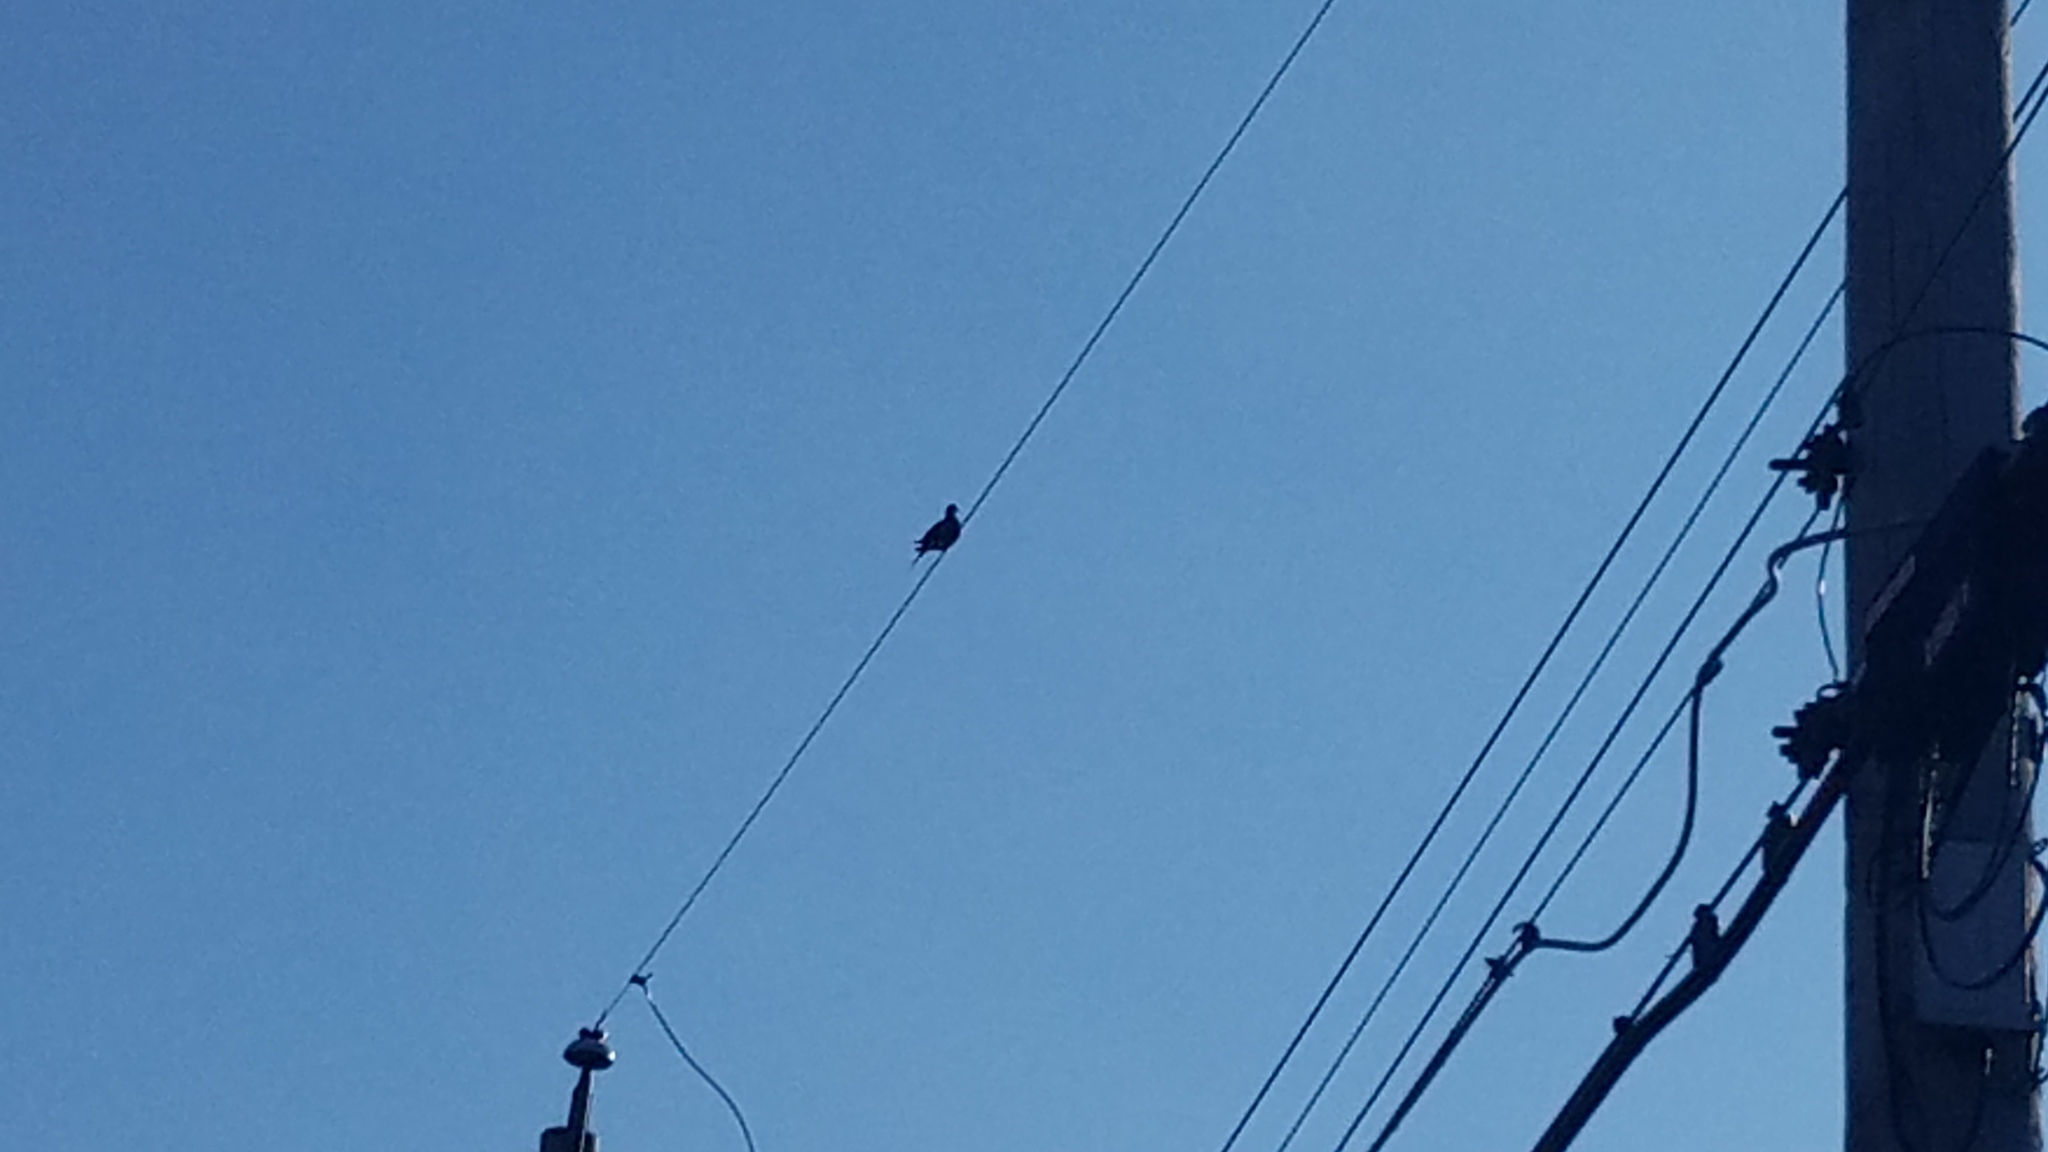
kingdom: Animalia
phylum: Chordata
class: Aves
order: Columbiformes
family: Columbidae
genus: Zenaida
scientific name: Zenaida macroura
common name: Mourning dove
